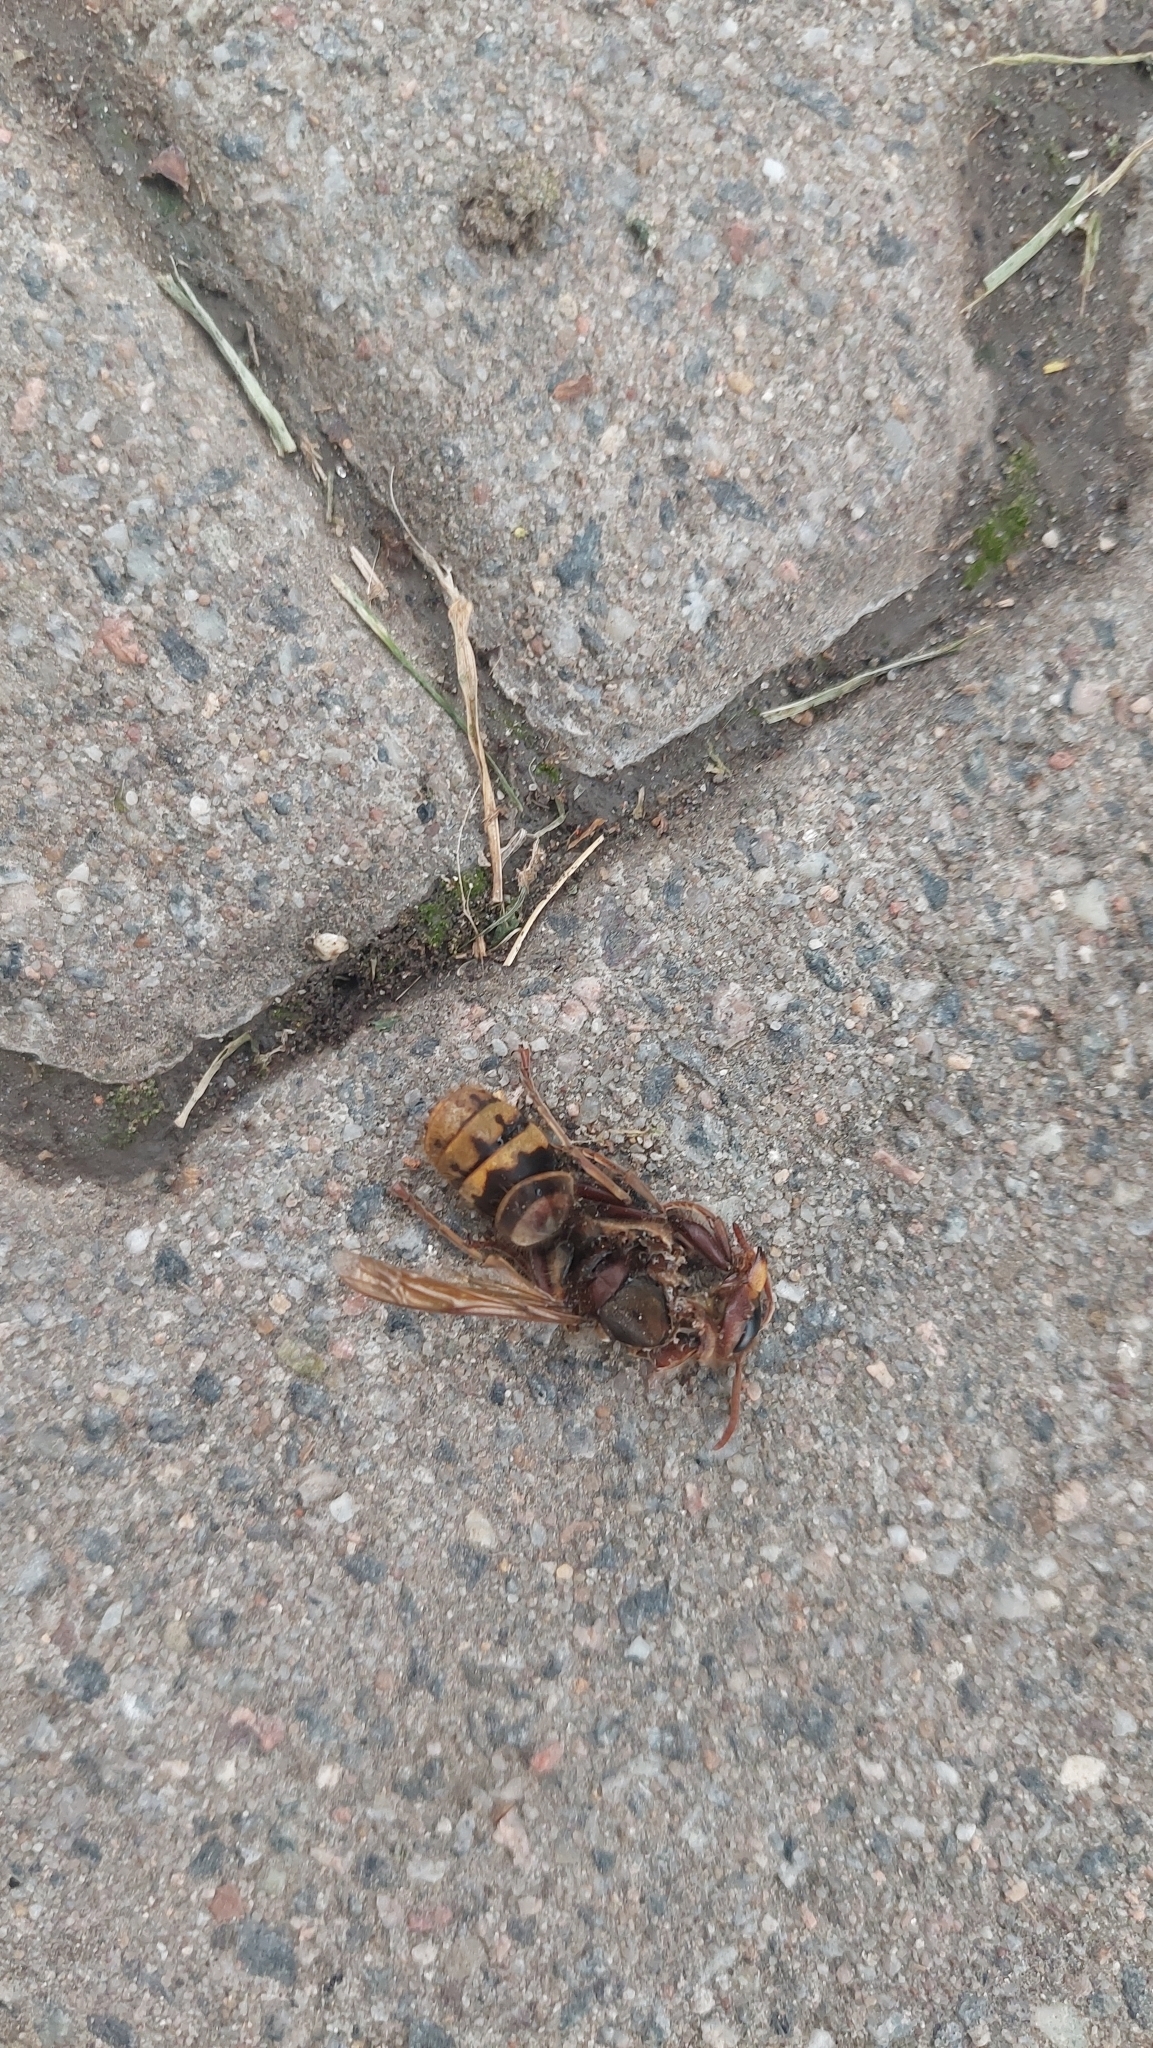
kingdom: Animalia
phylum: Arthropoda
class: Insecta
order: Hymenoptera
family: Vespidae
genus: Vespa
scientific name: Vespa crabro
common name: Hornet
